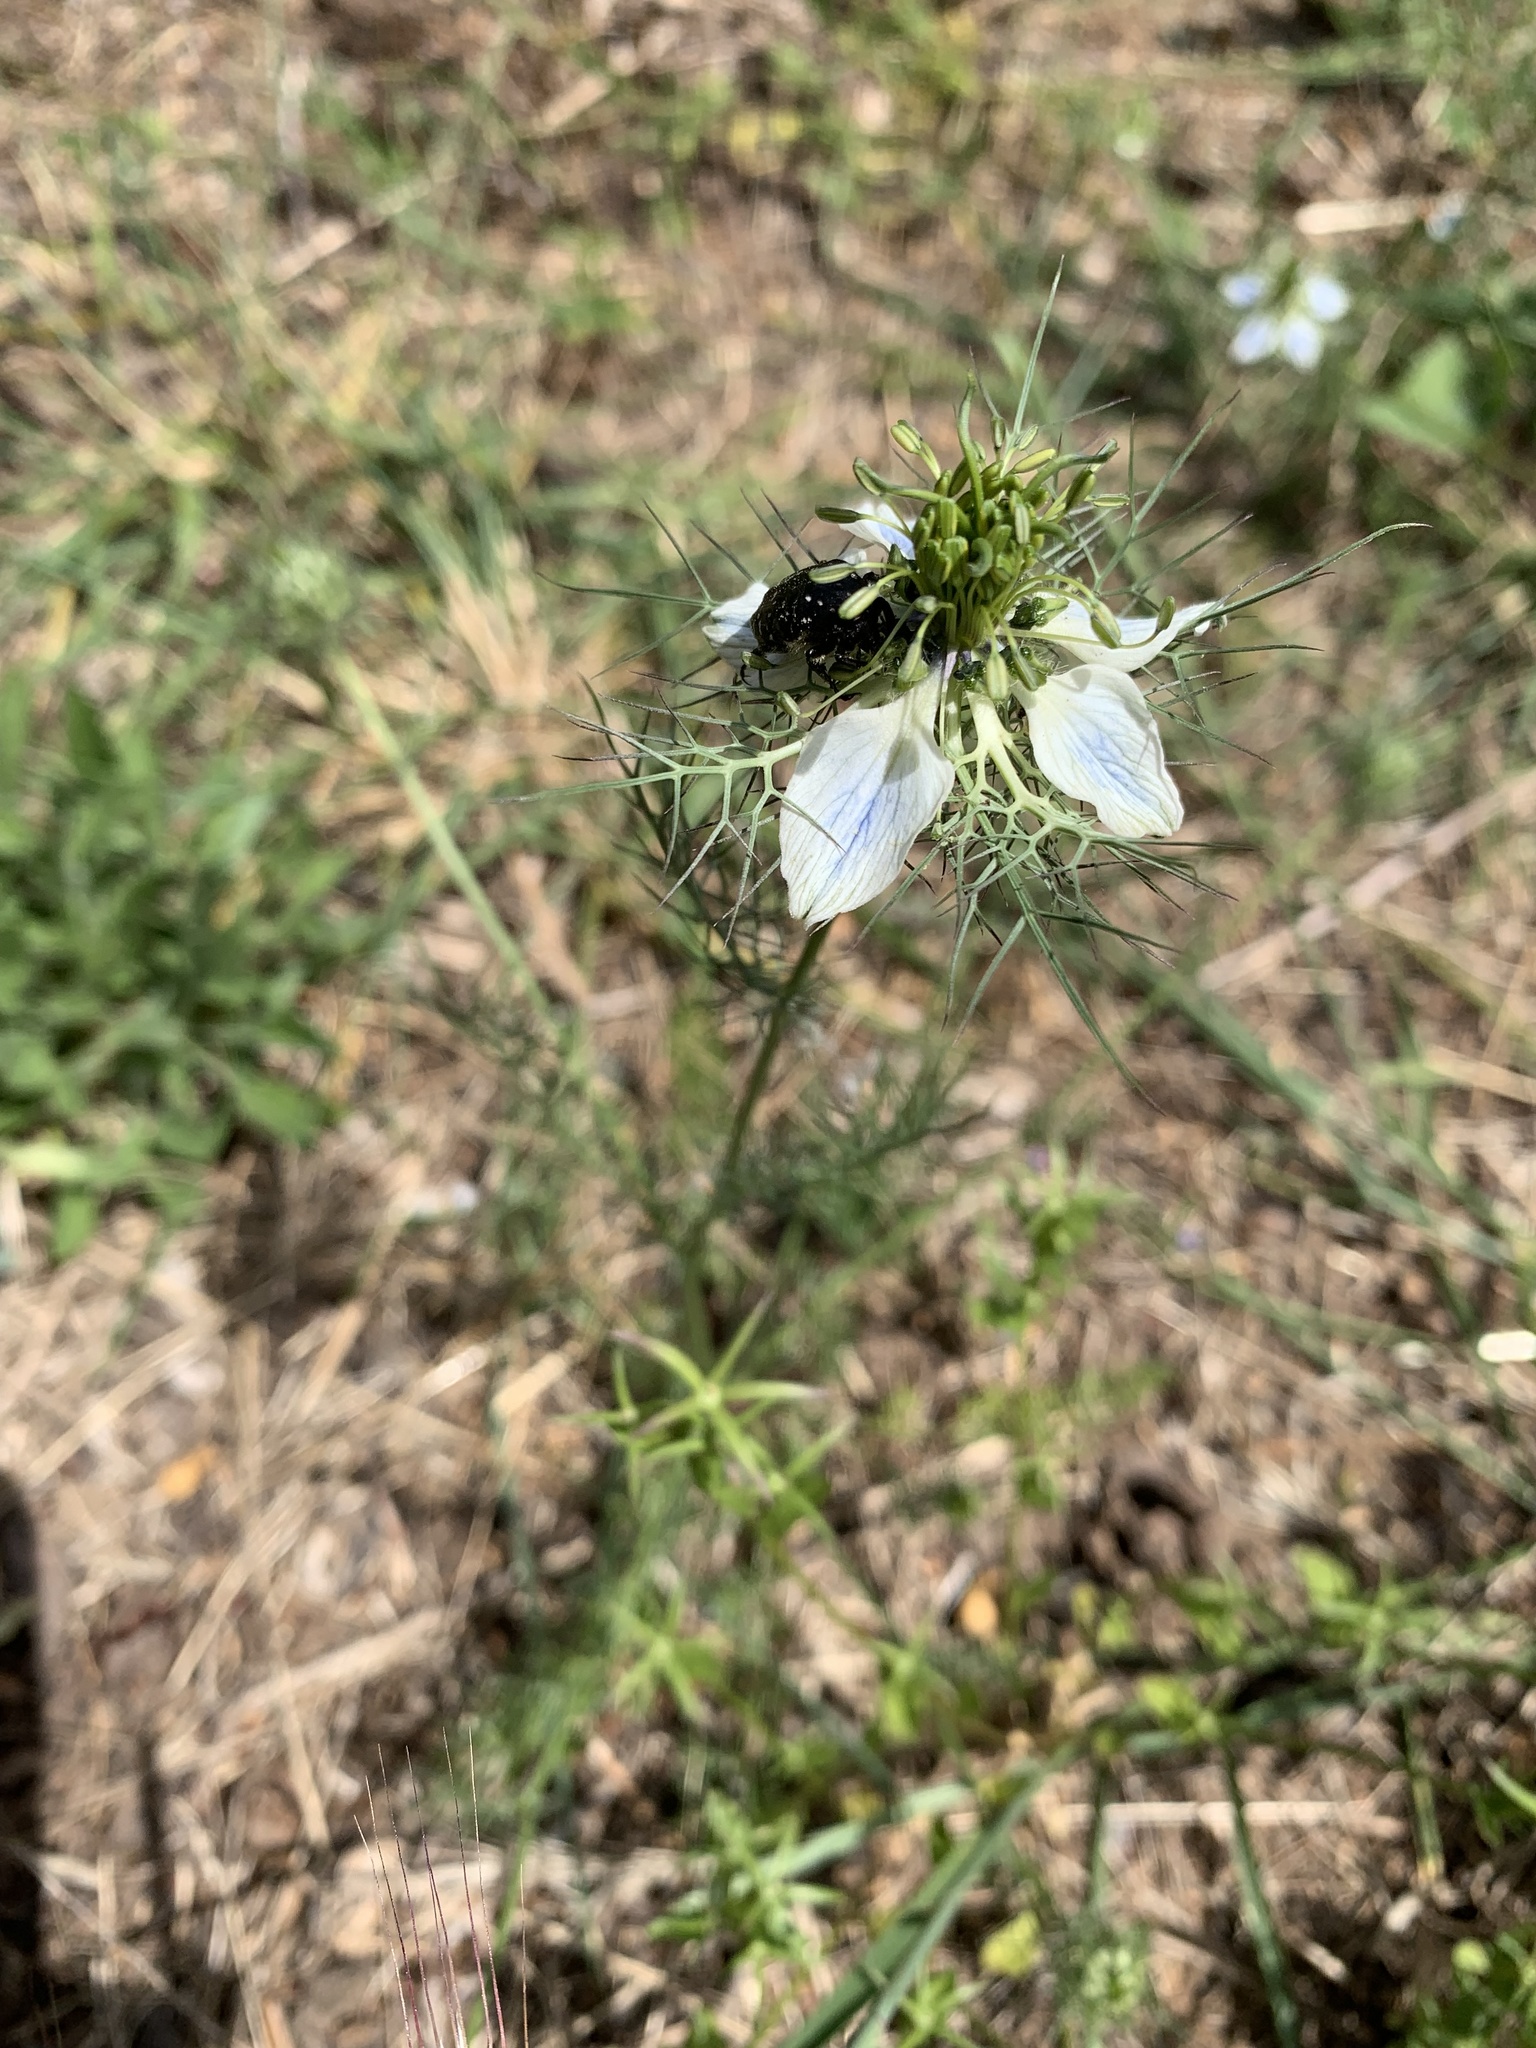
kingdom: Plantae
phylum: Tracheophyta
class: Magnoliopsida
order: Ranunculales
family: Ranunculaceae
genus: Nigella
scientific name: Nigella damascena
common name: Love-in-a-mist
